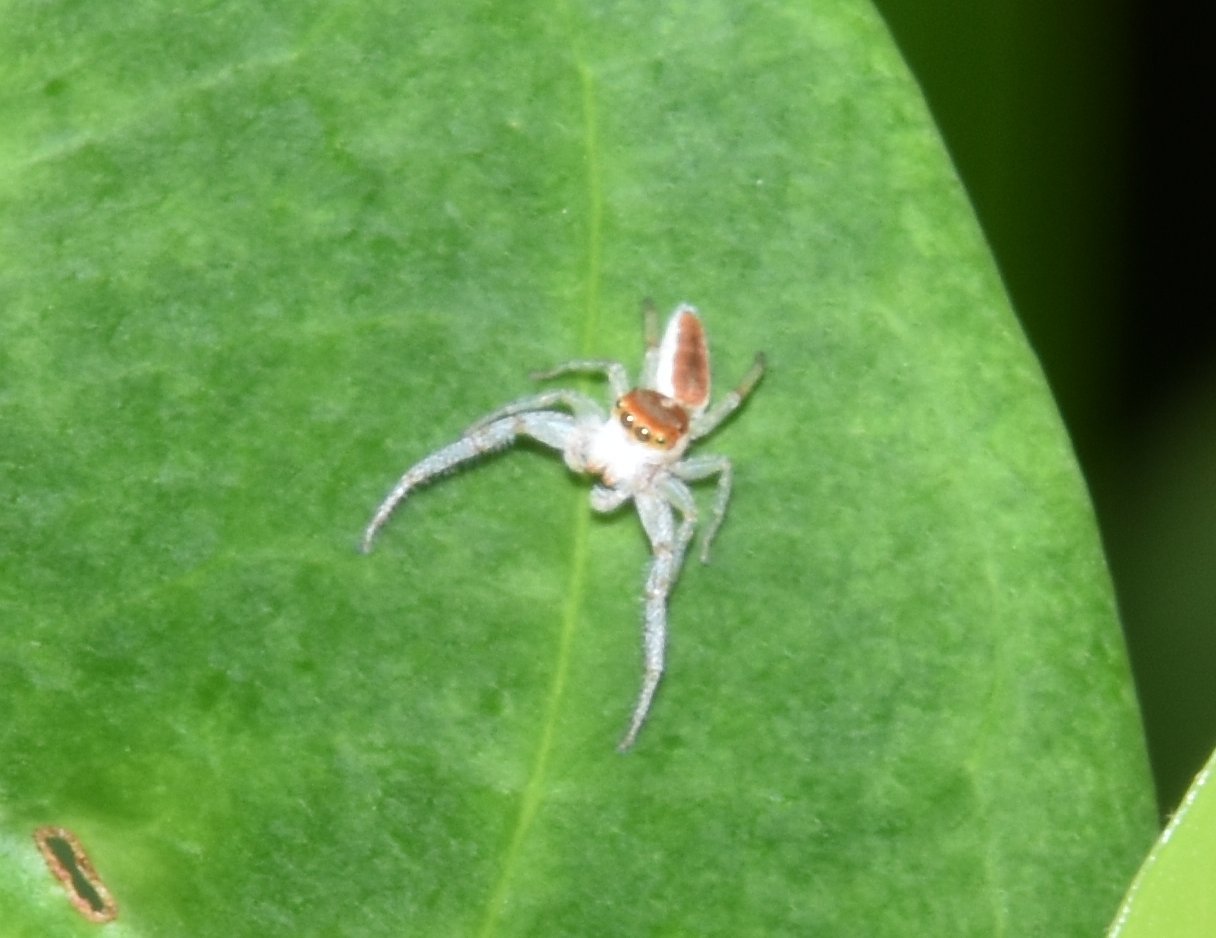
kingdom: Animalia
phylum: Arthropoda
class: Arachnida
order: Araneae
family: Salticidae
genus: Hentzia
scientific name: Hentzia mitrata
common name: White-jawed jumping spider
